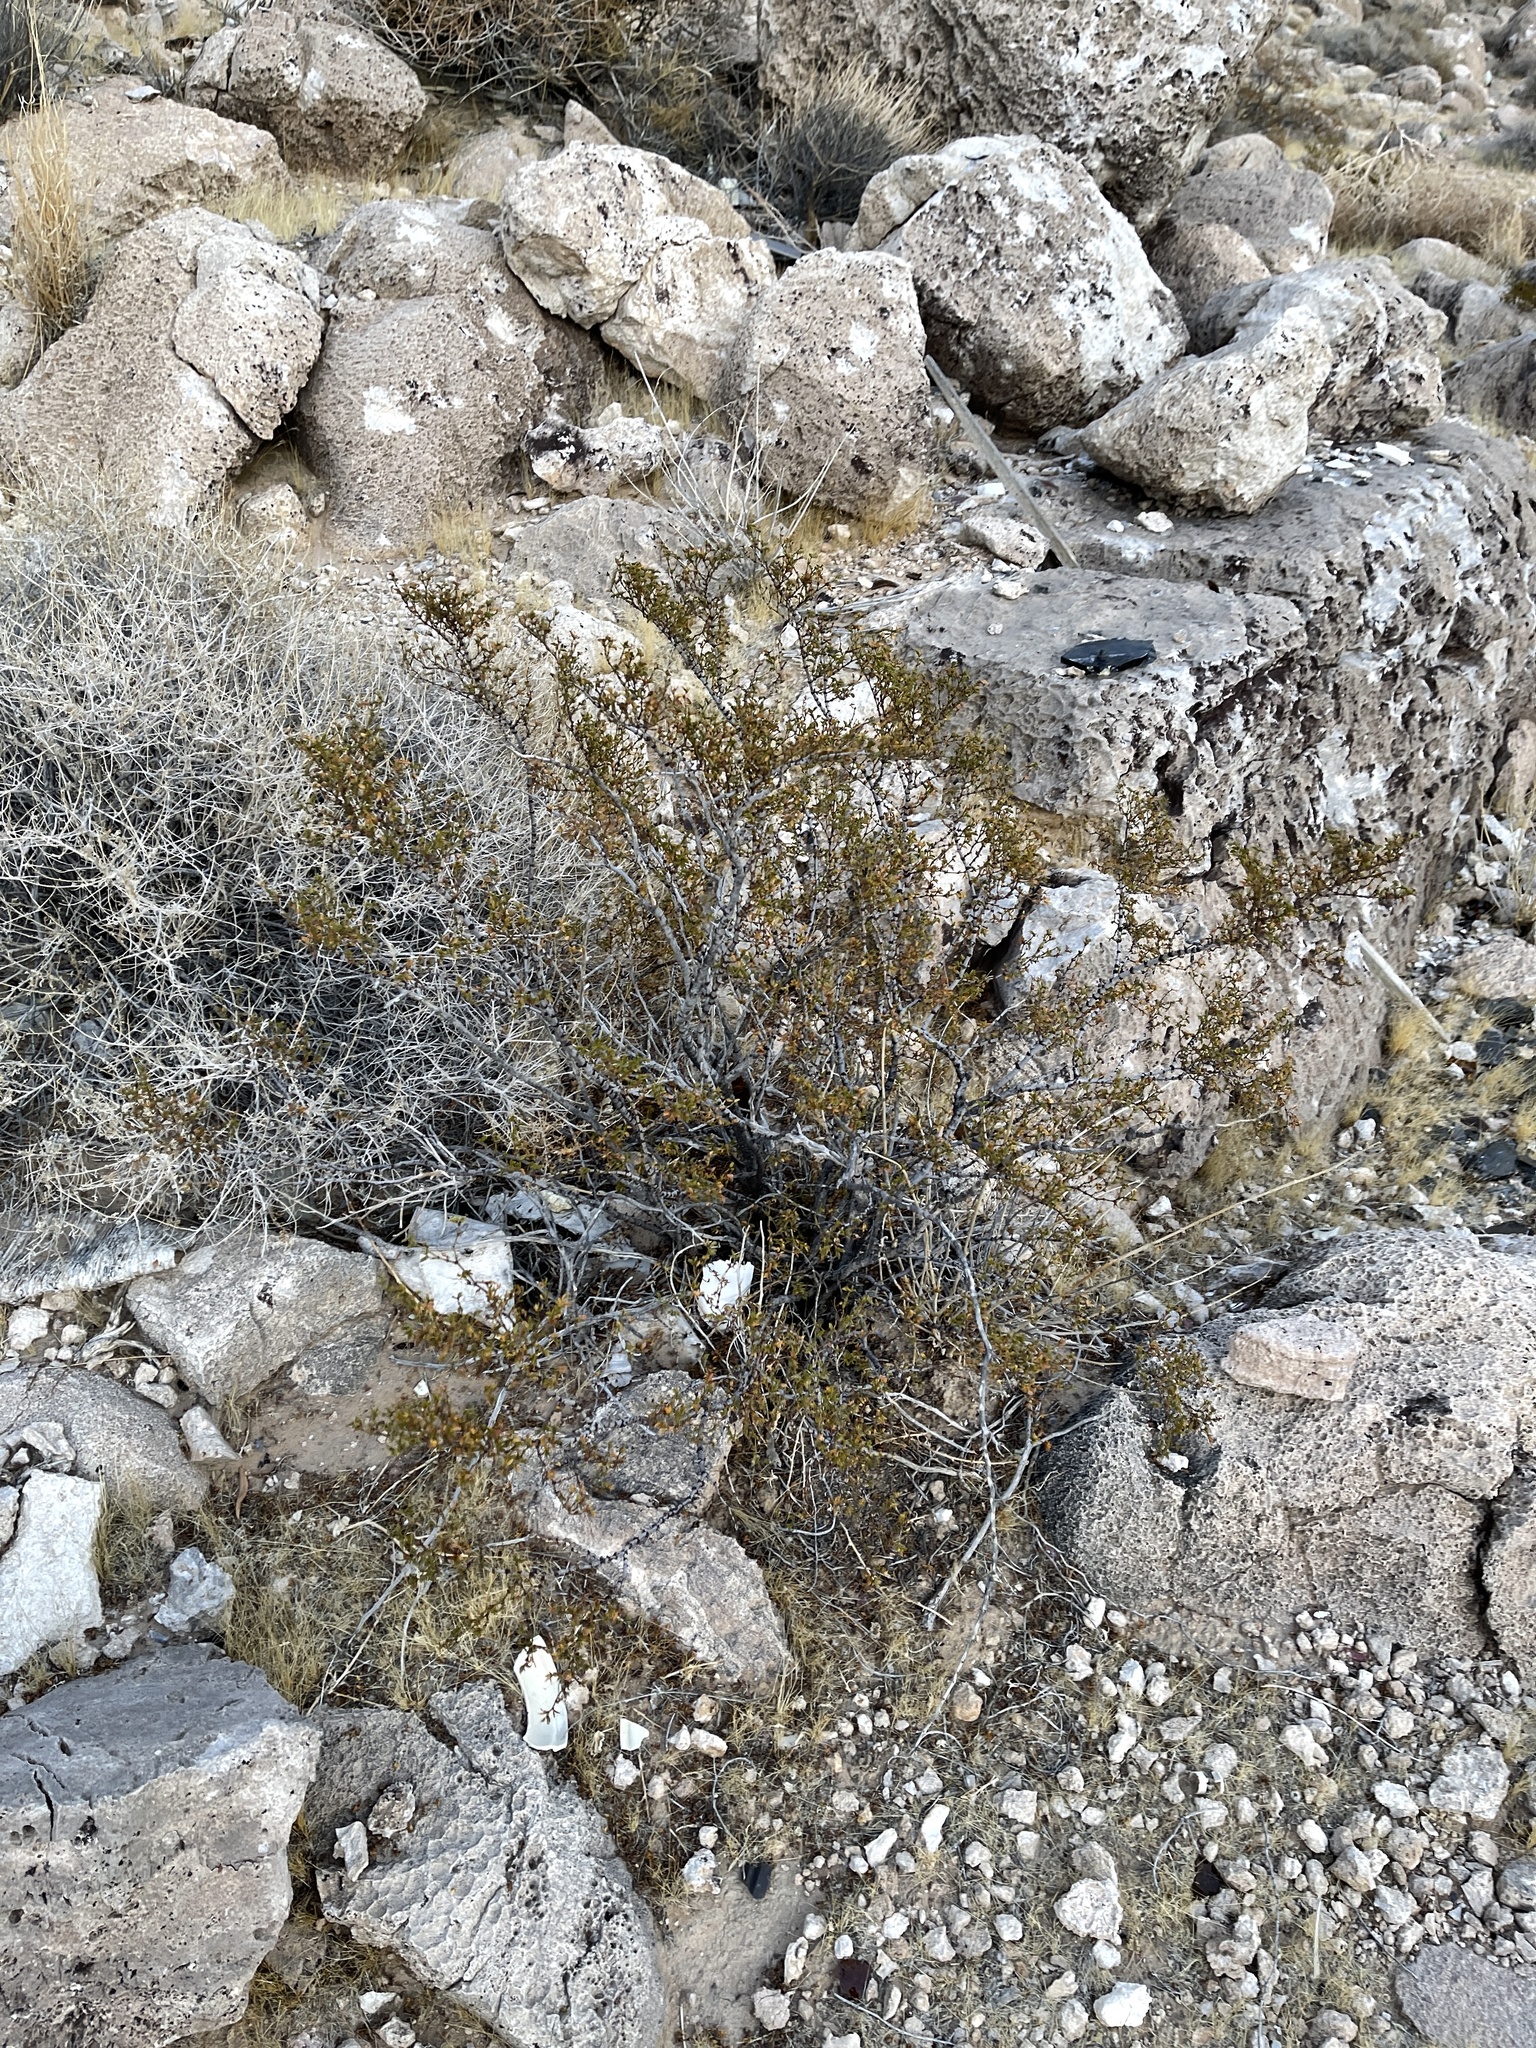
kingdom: Plantae
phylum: Tracheophyta
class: Magnoliopsida
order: Zygophyllales
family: Zygophyllaceae
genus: Larrea
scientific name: Larrea tridentata
